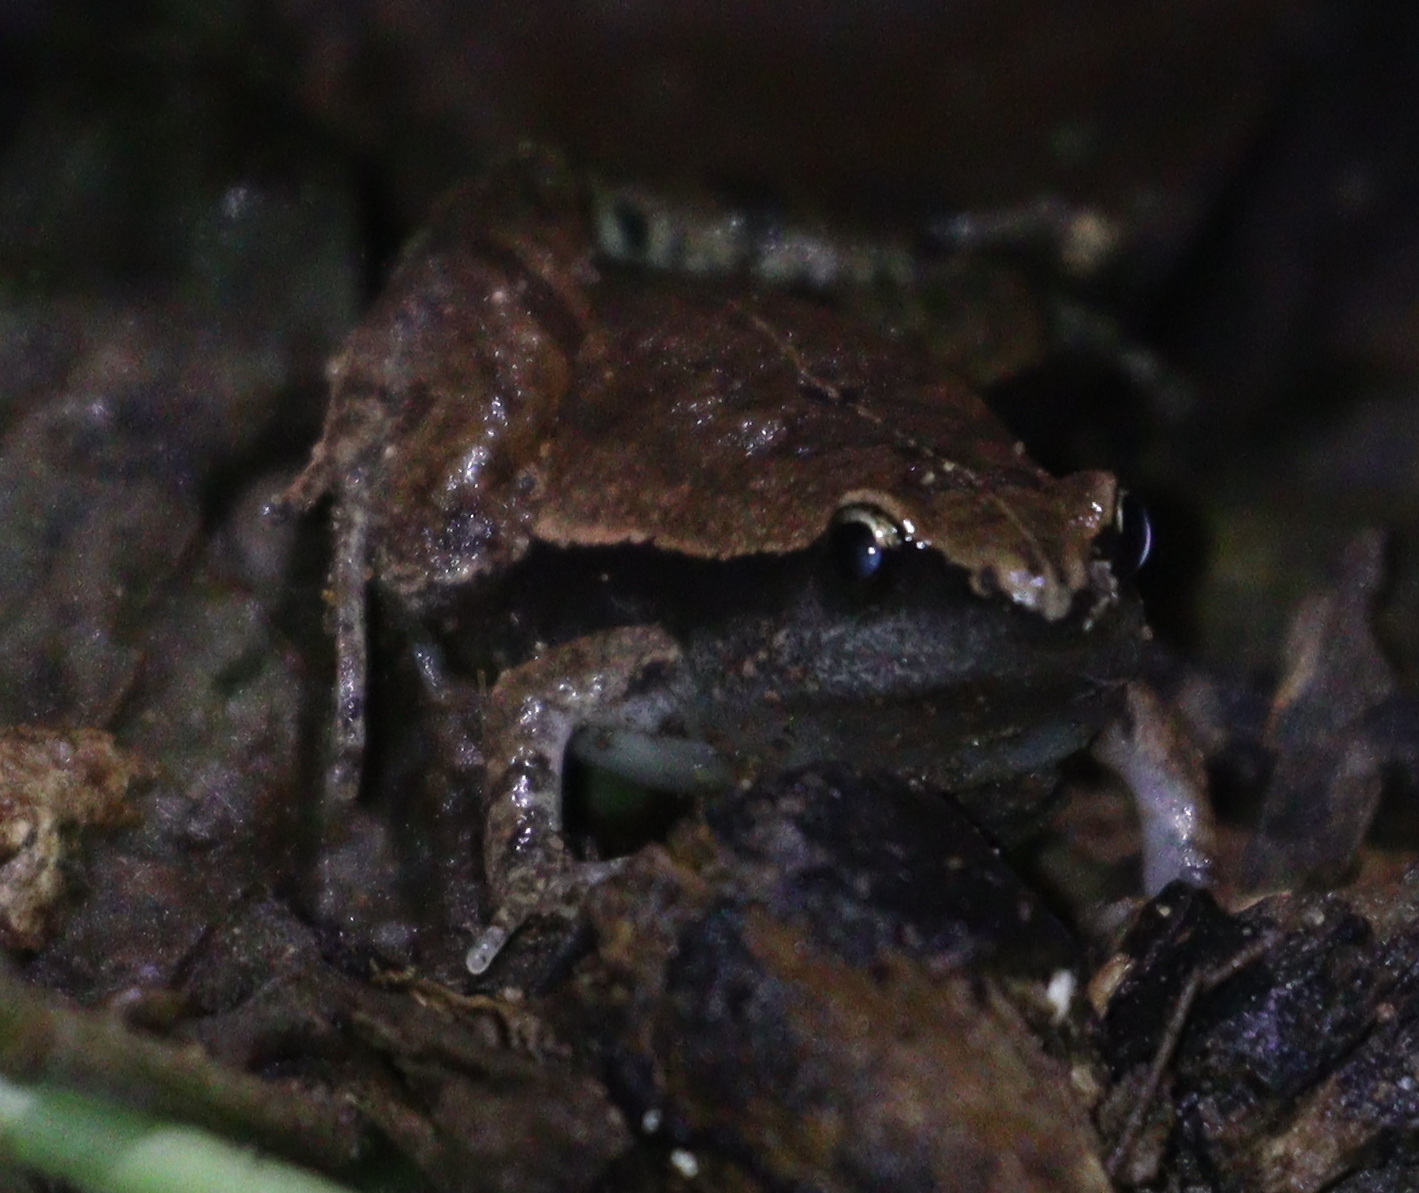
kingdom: Animalia
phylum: Chordata
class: Amphibia
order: Anura
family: Microhylidae
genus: Microhyla
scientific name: Microhyla heymonsi
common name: Taiwan rice frog,dark sided chorus frog
